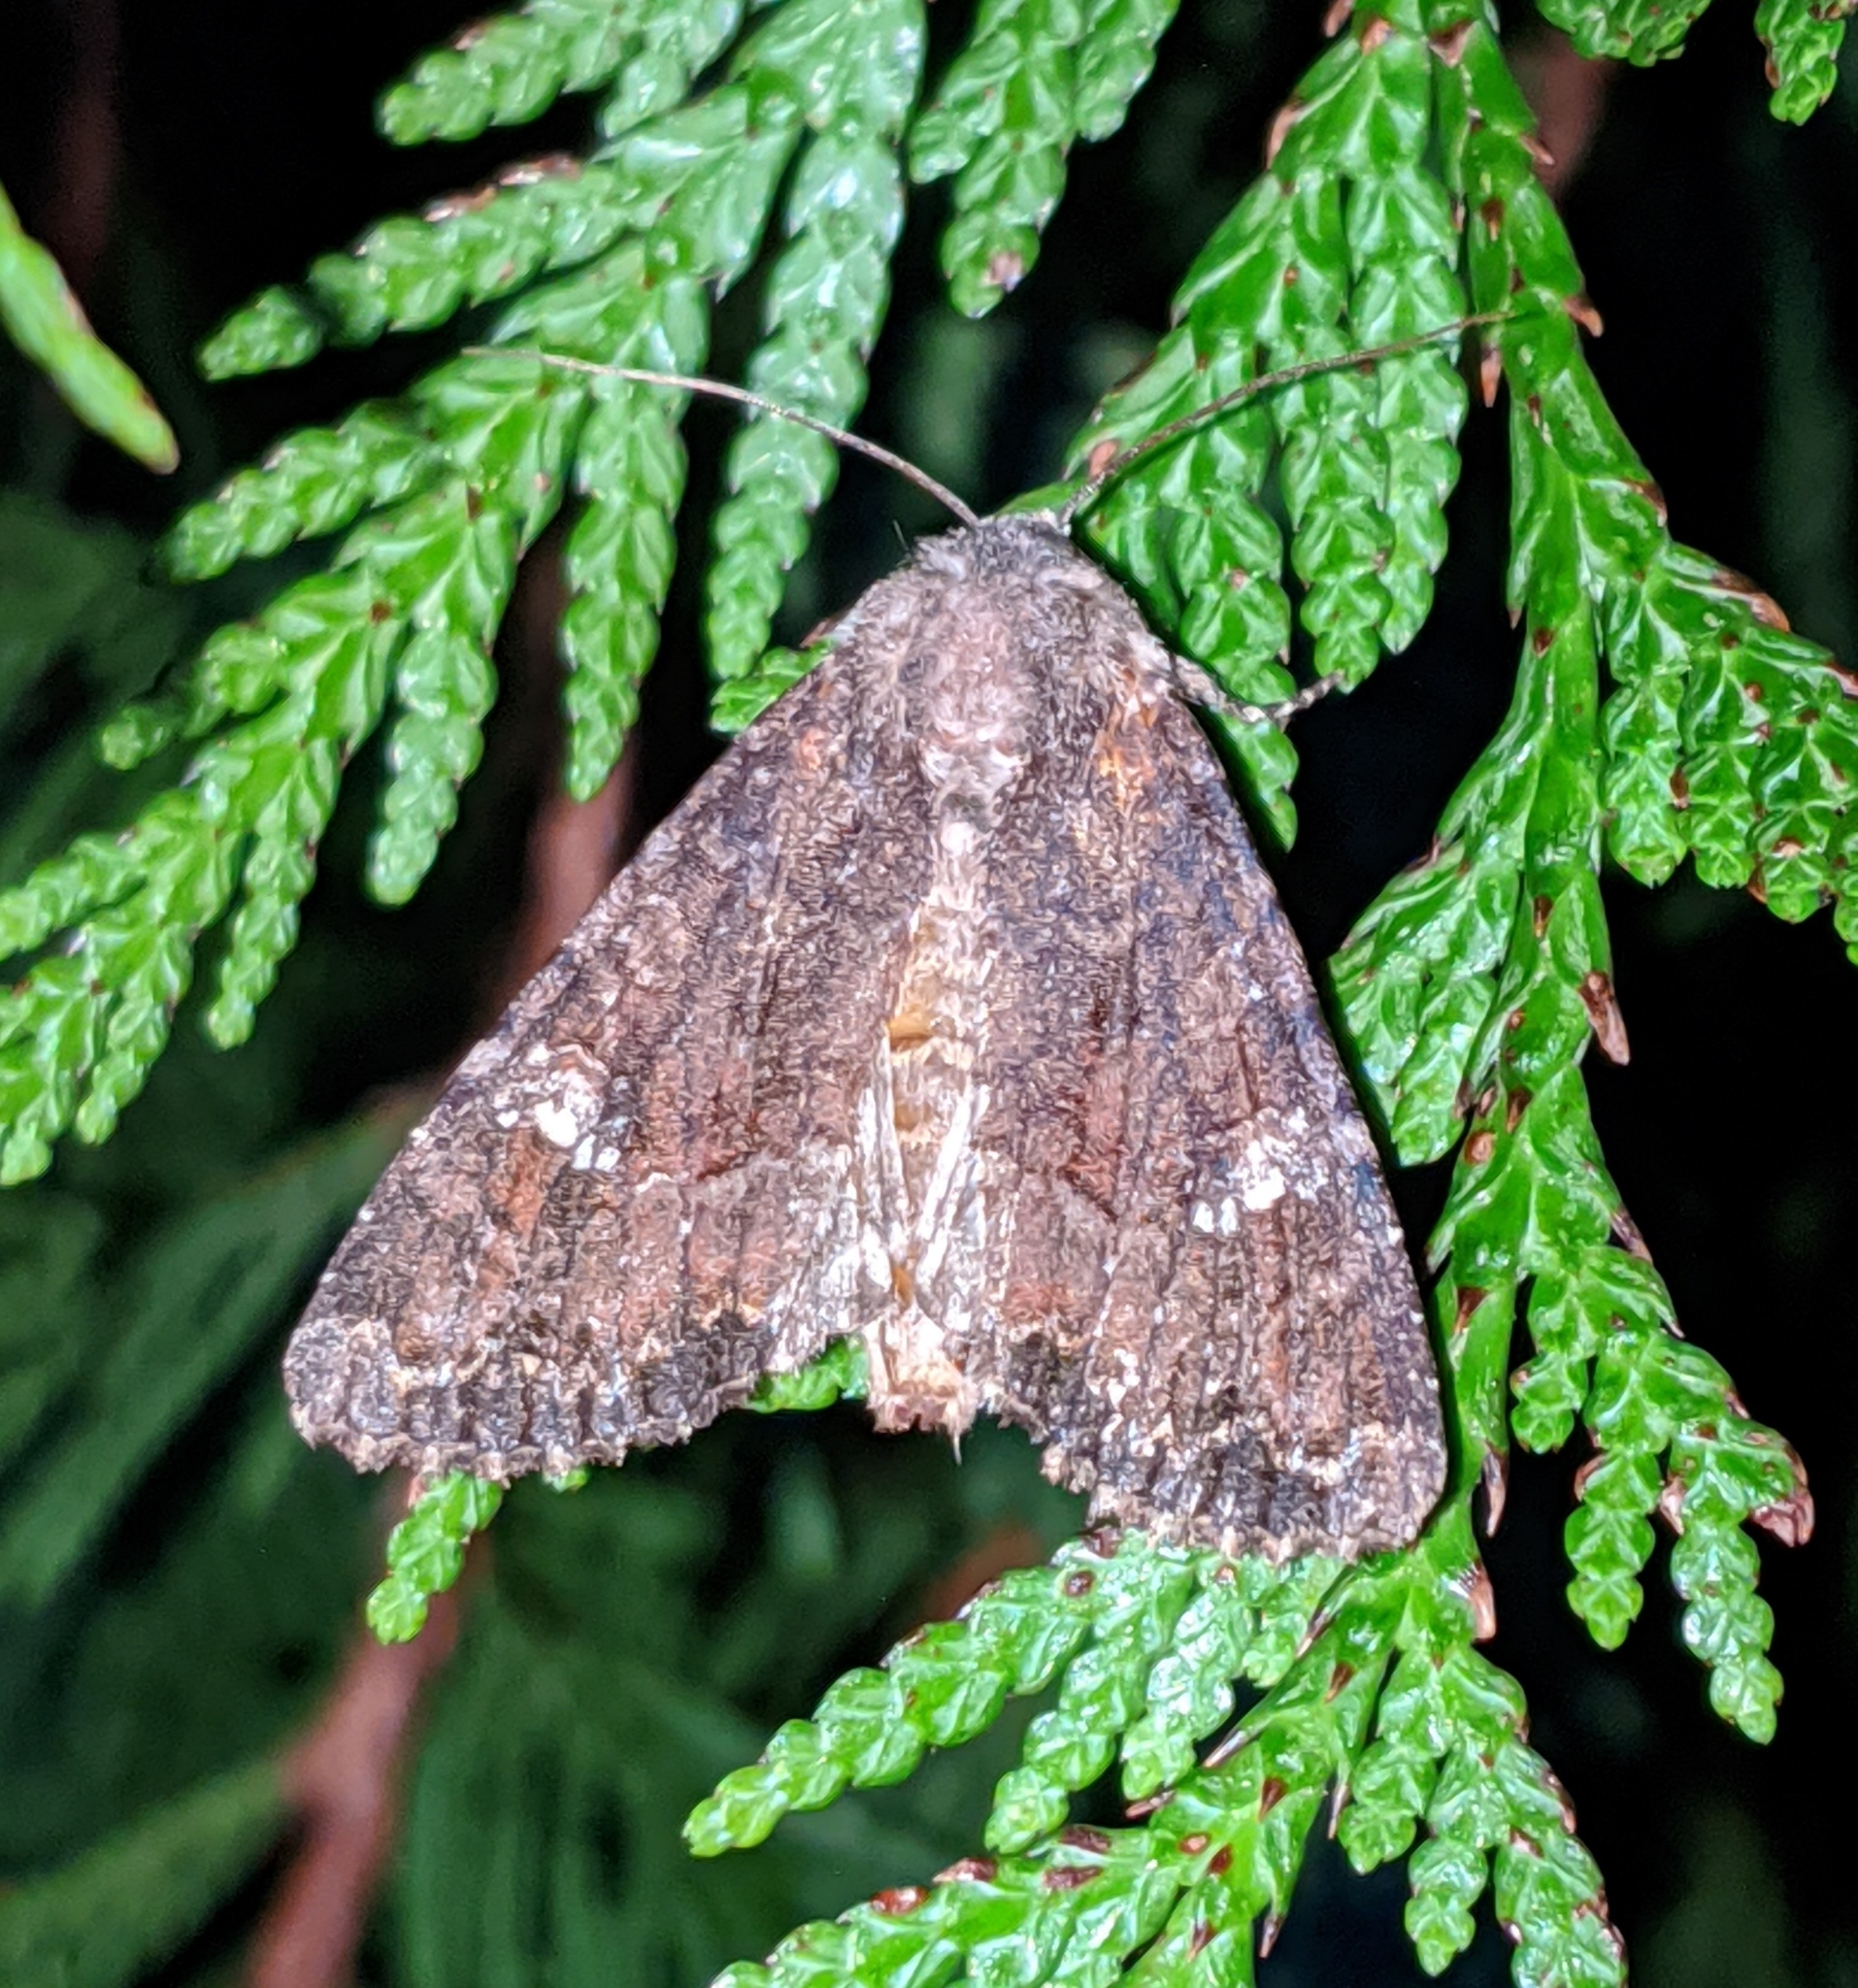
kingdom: Animalia
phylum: Arthropoda
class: Insecta
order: Lepidoptera
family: Noctuidae
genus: Apamea
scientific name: Apamea amputatrix
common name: Yellow-headed cutworm moth
